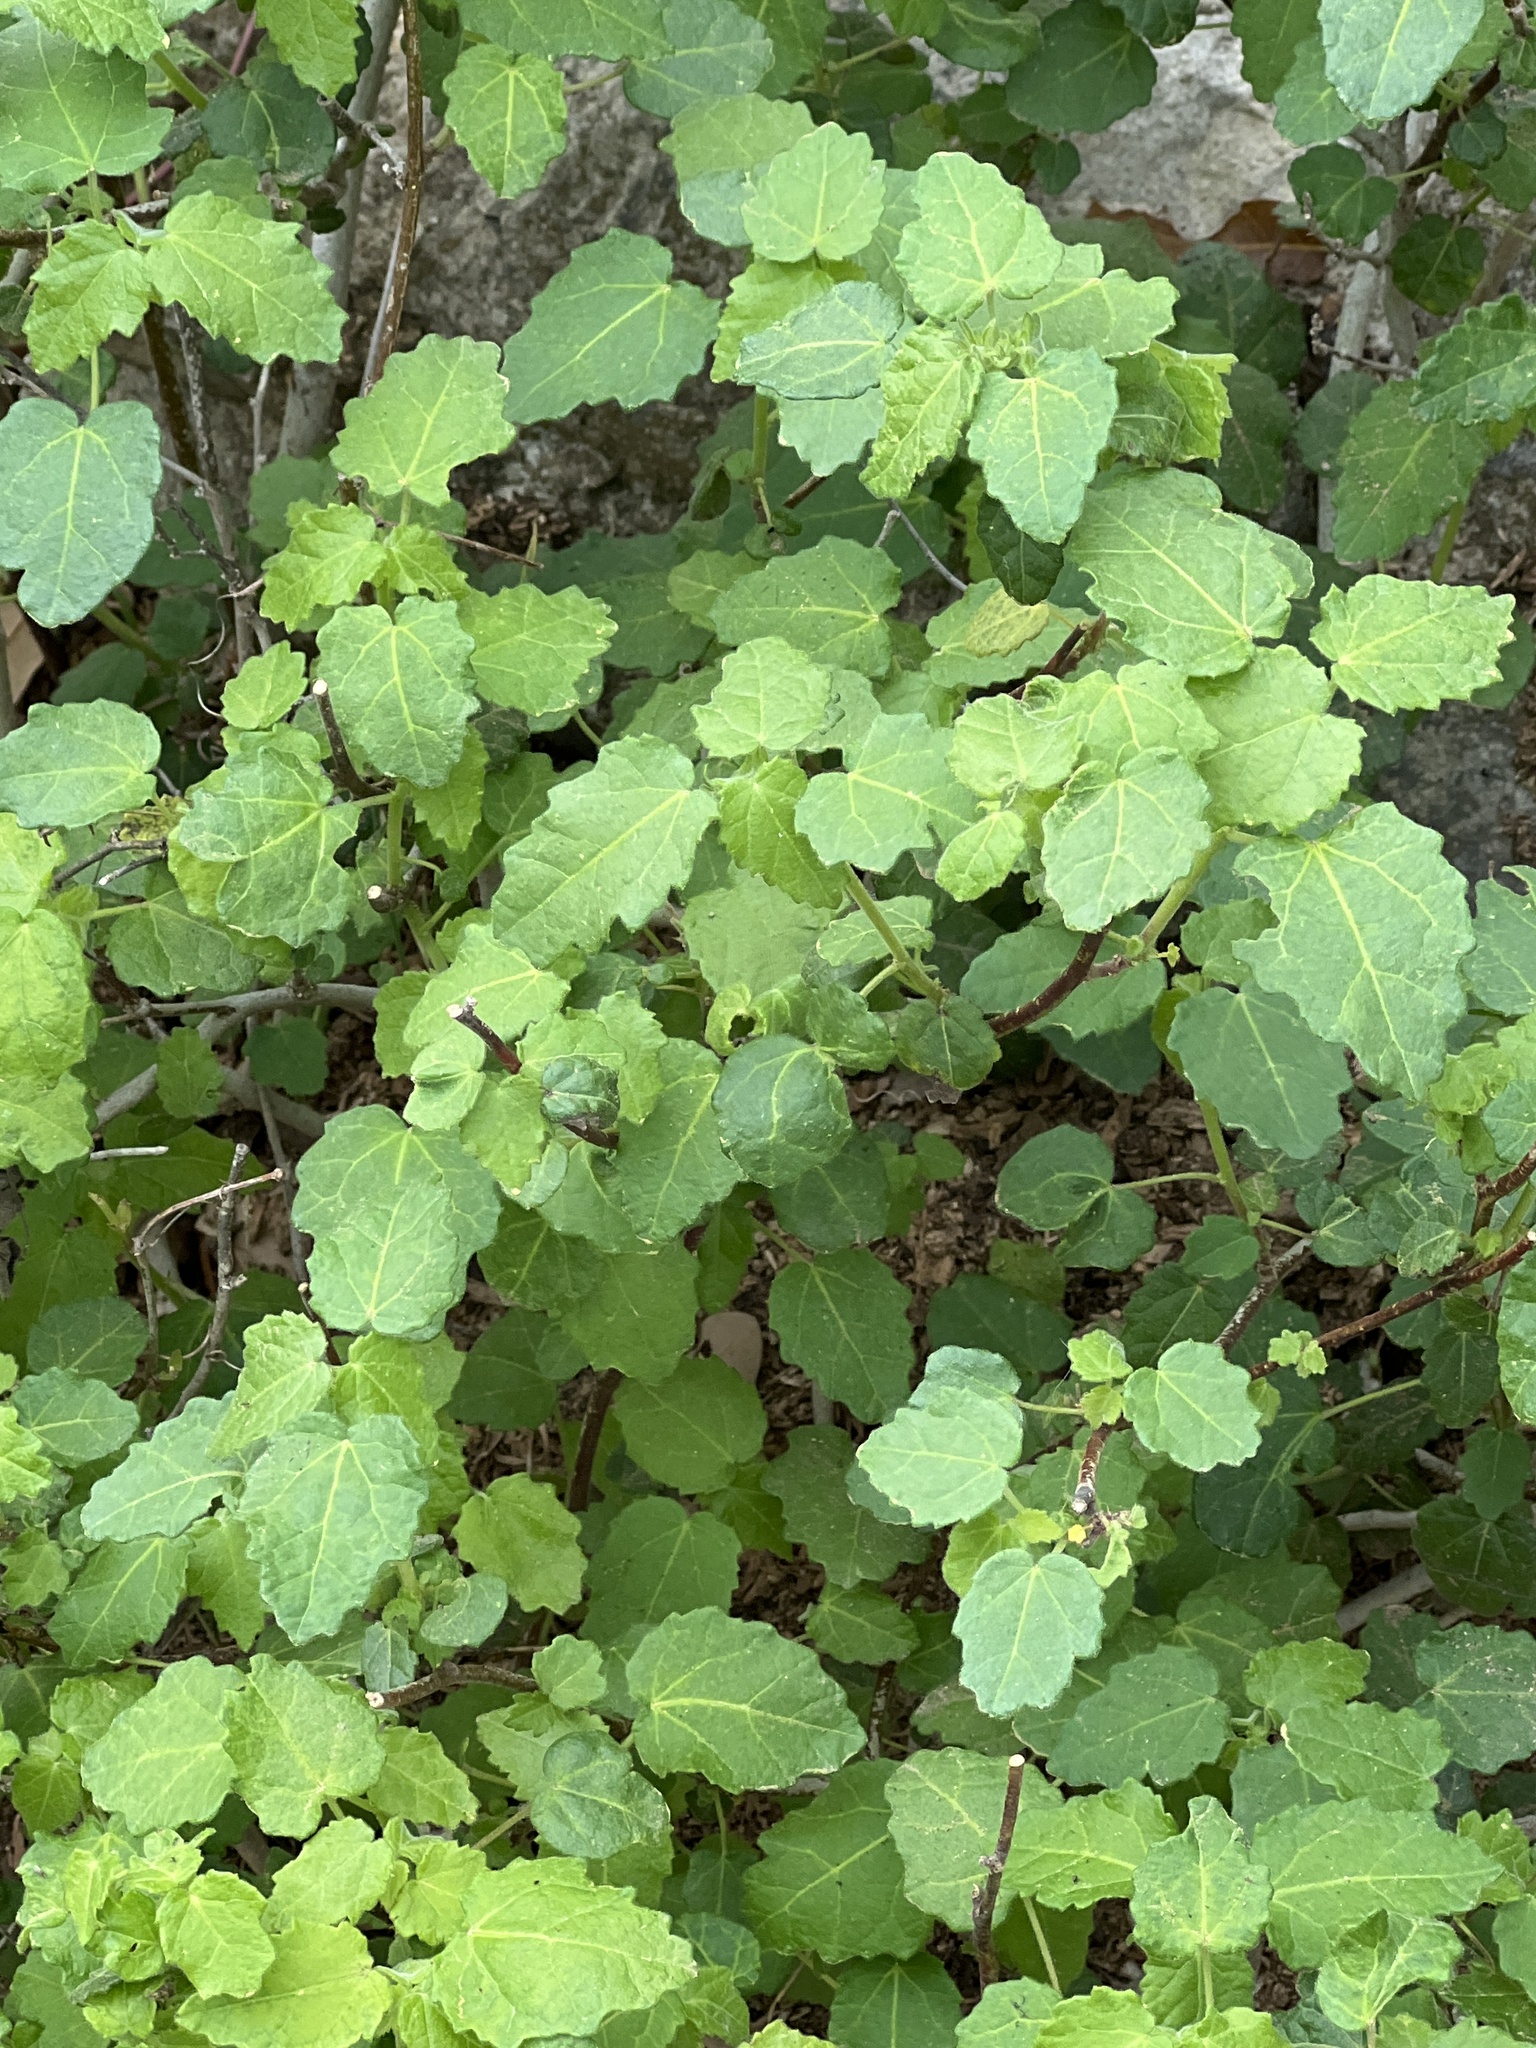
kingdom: Plantae
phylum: Tracheophyta
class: Magnoliopsida
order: Malvales
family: Malvaceae
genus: Pavonia
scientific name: Pavonia lasiopetala
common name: Texas swamp-mallow
